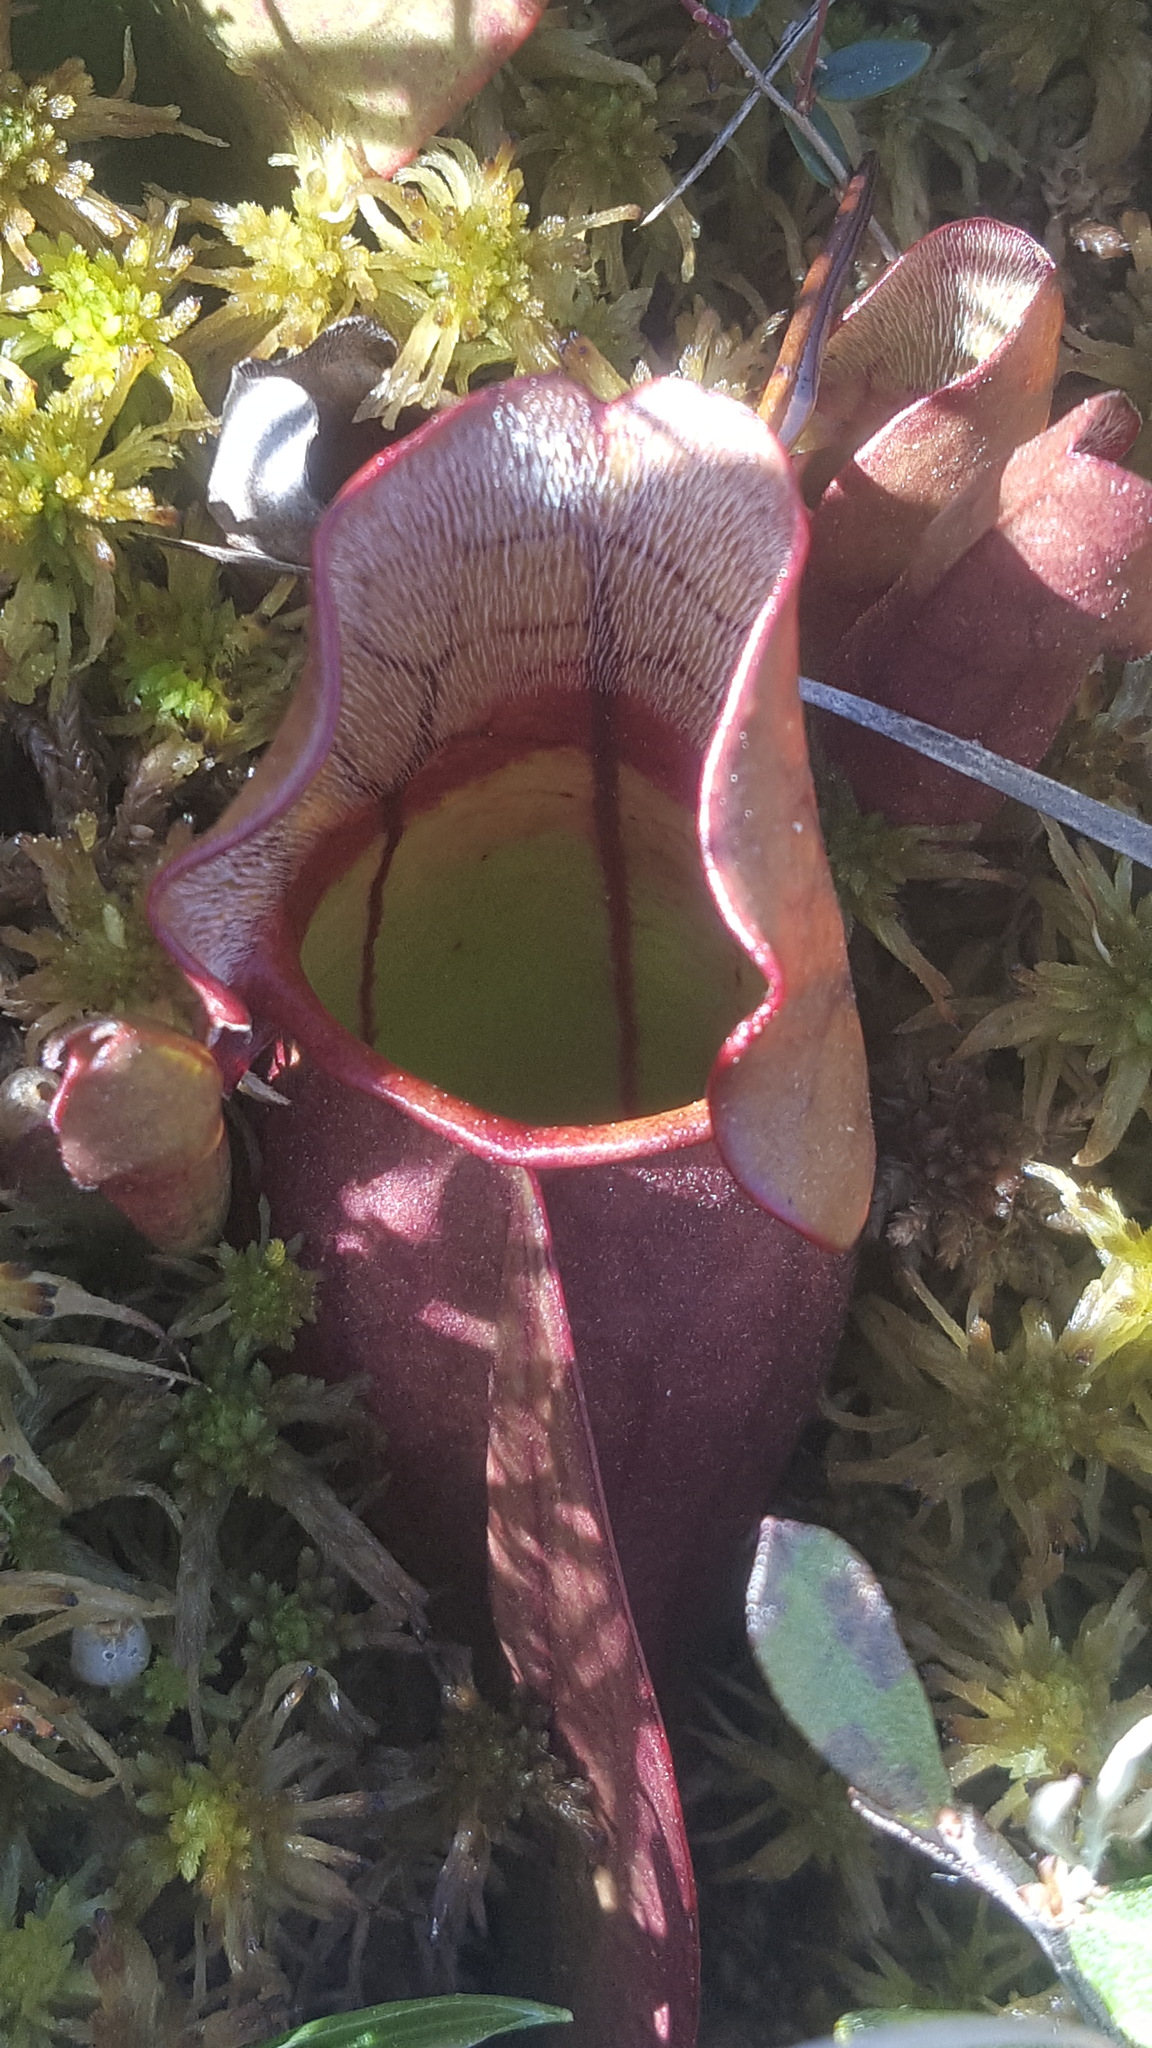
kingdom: Plantae
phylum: Tracheophyta
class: Magnoliopsida
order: Ericales
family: Sarraceniaceae
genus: Sarracenia
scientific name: Sarracenia purpurea
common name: Pitcherplant
